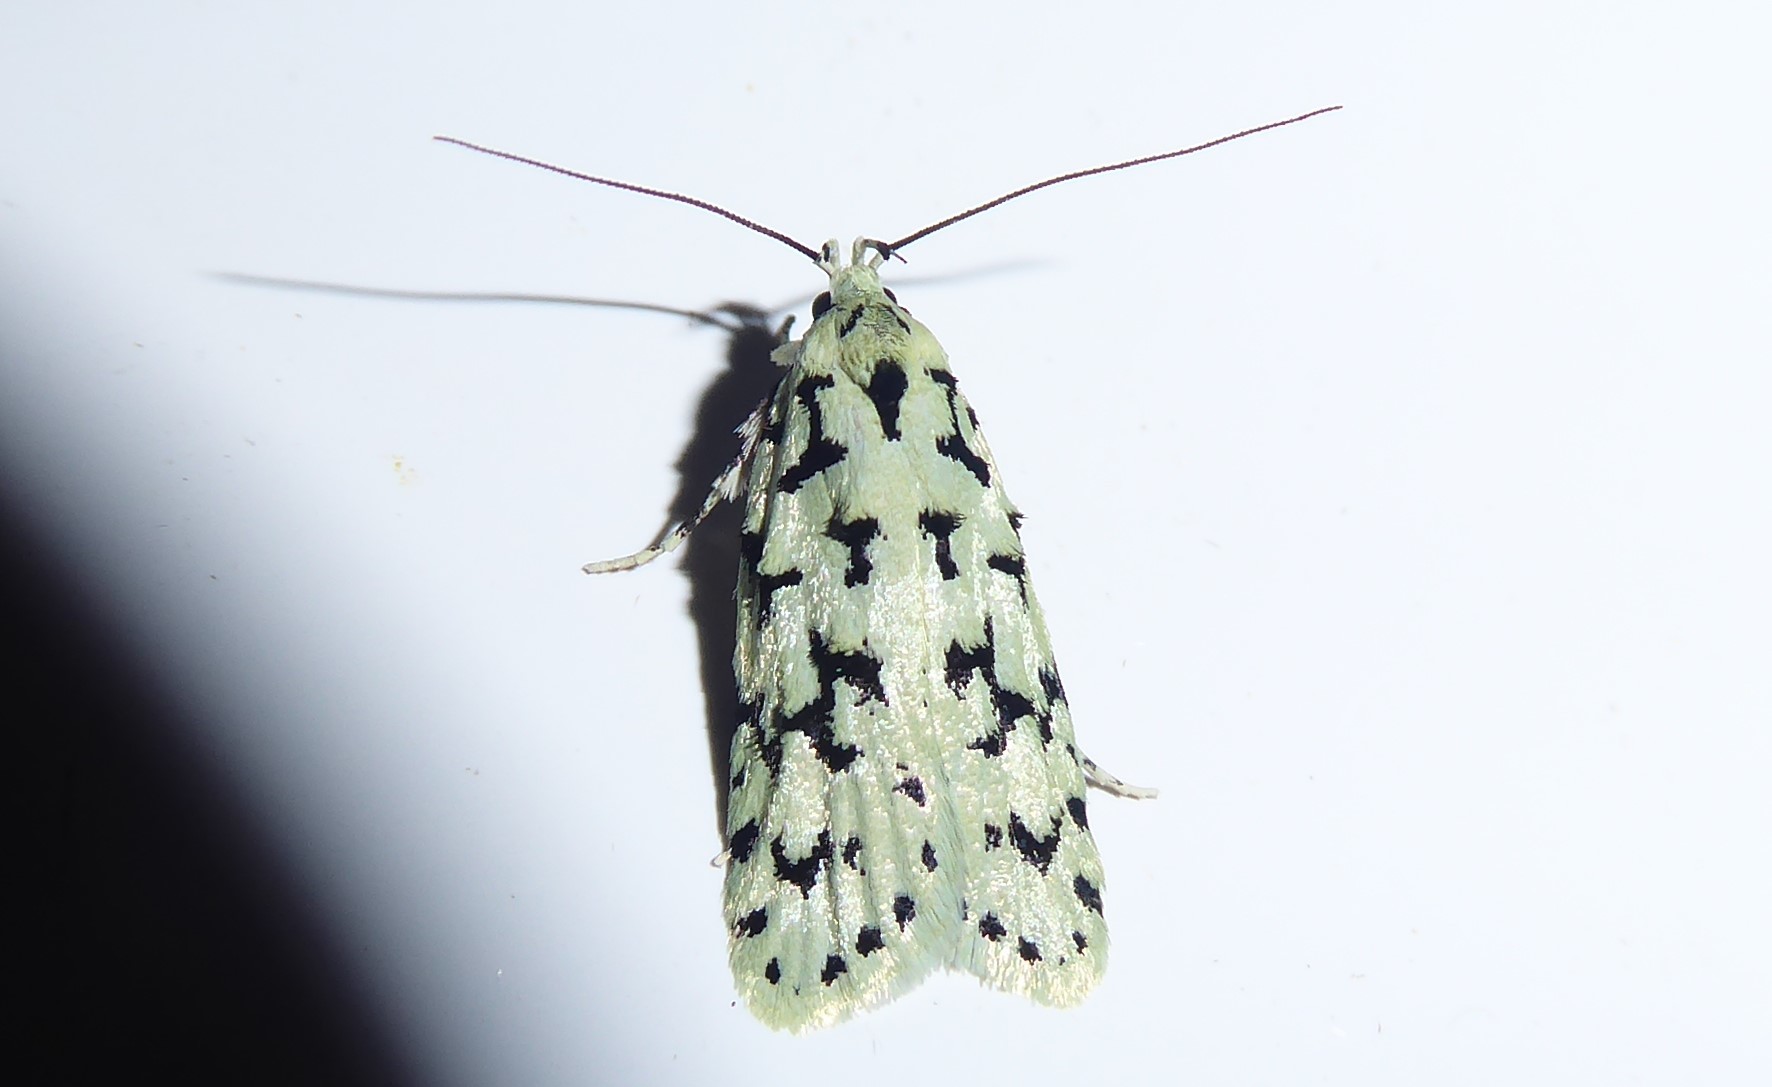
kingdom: Animalia
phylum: Arthropoda
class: Insecta
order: Lepidoptera
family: Oecophoridae
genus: Izatha
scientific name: Izatha huttoni
